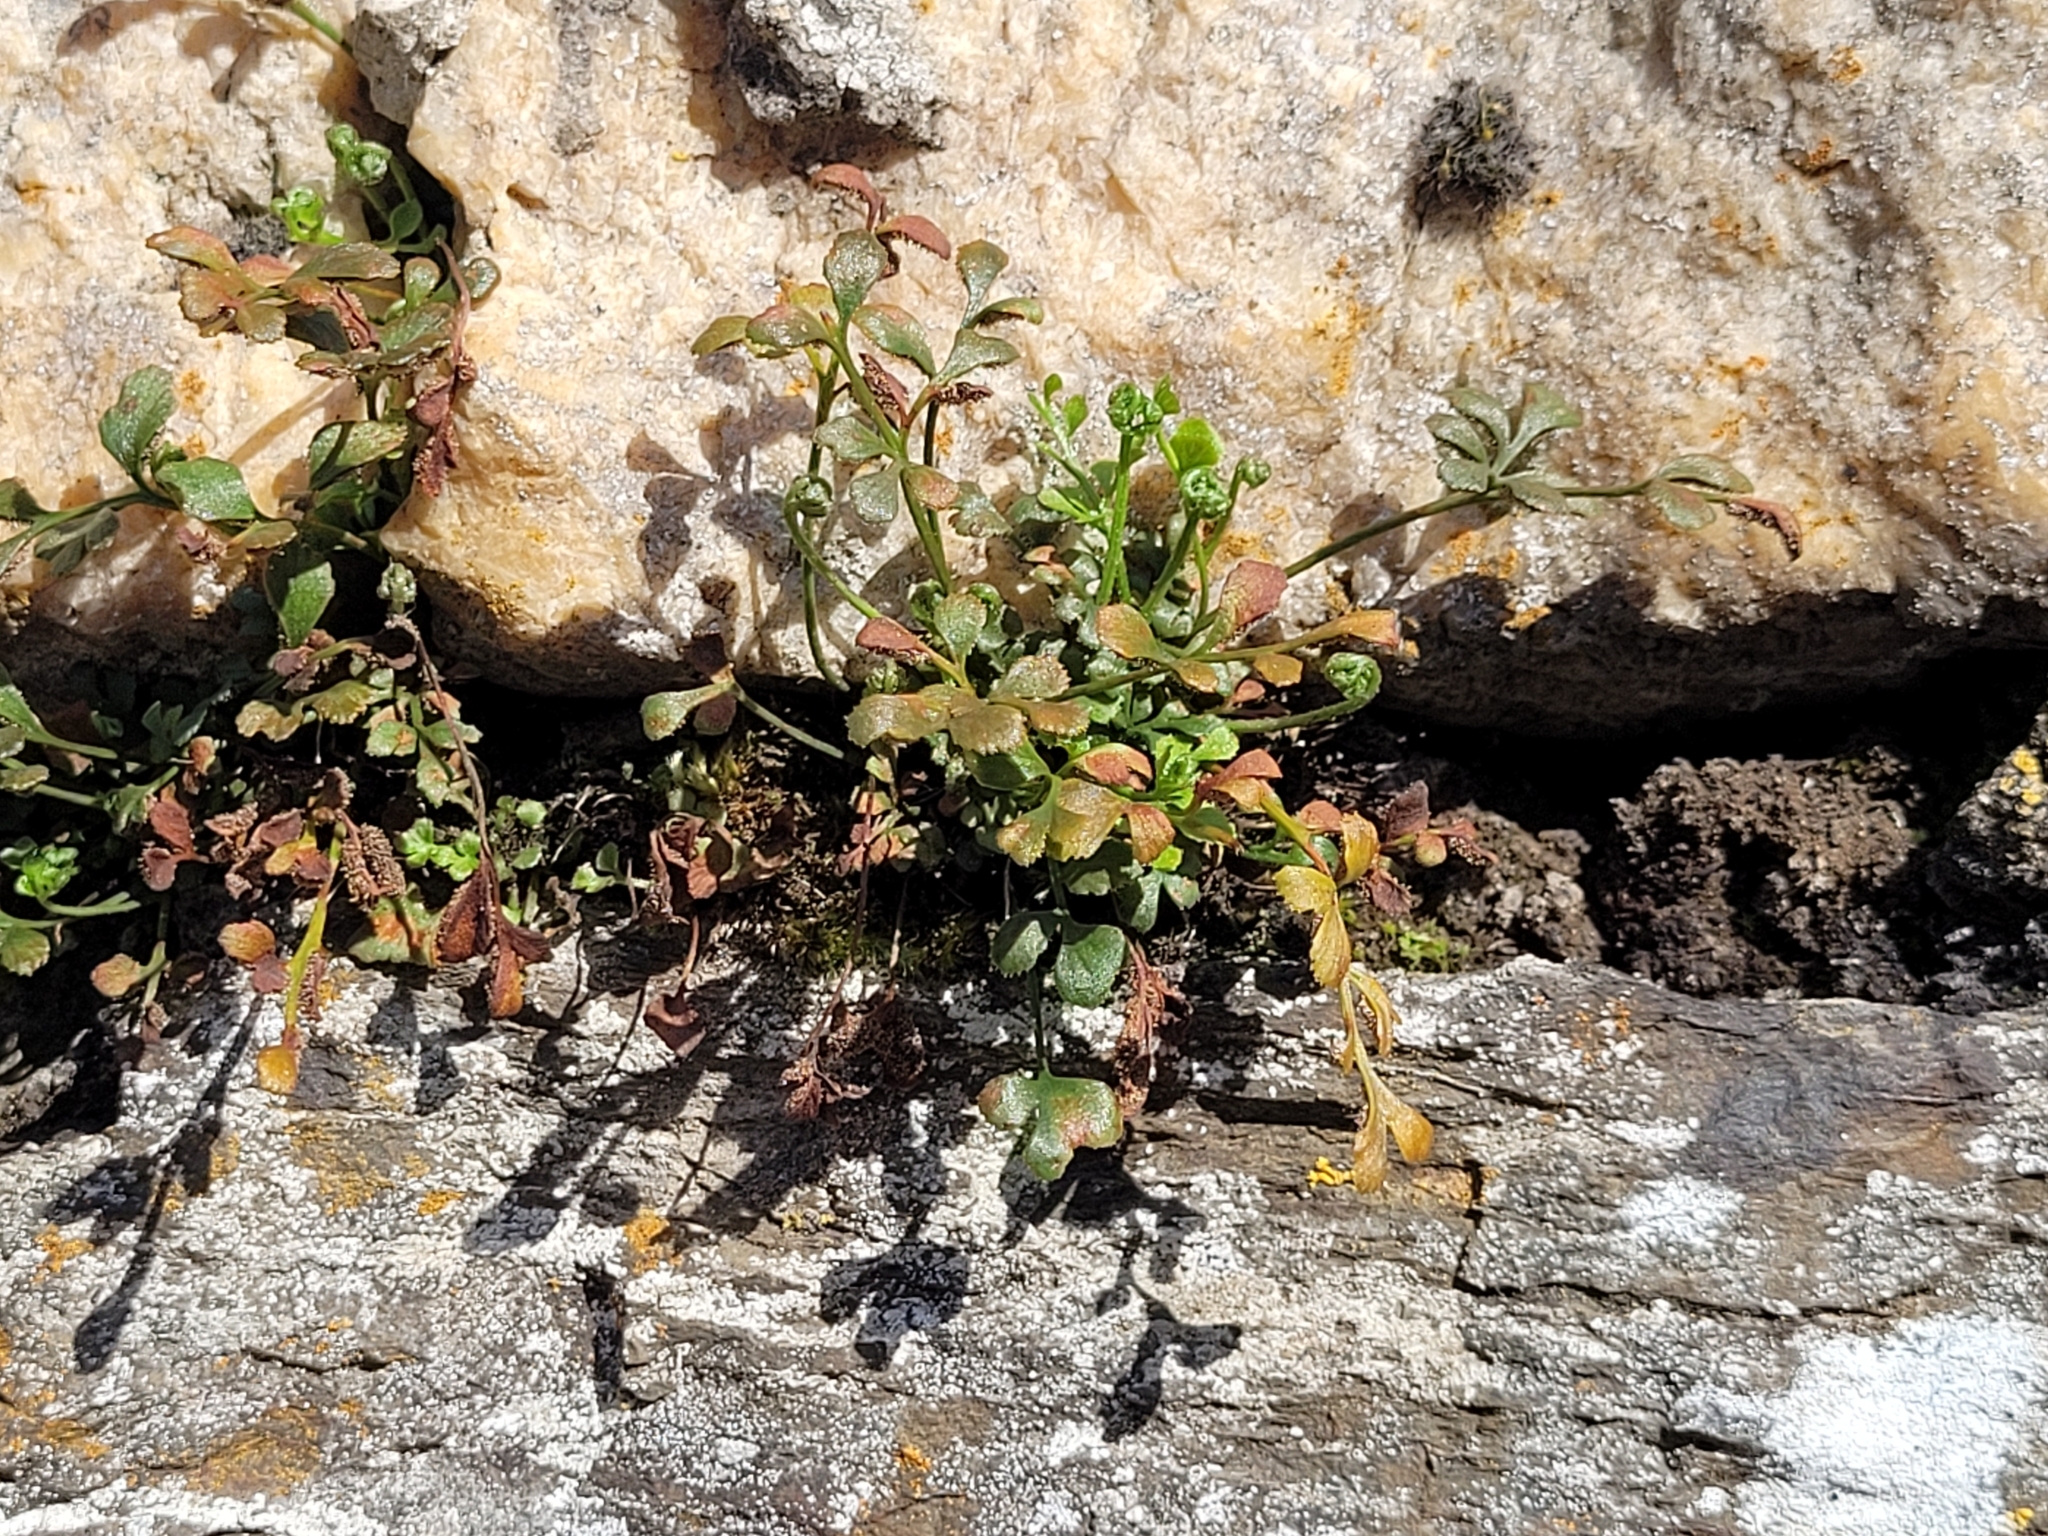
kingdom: Plantae
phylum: Tracheophyta
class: Polypodiopsida
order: Polypodiales
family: Aspleniaceae
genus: Asplenium
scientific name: Asplenium ruta-muraria
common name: Wall-rue
